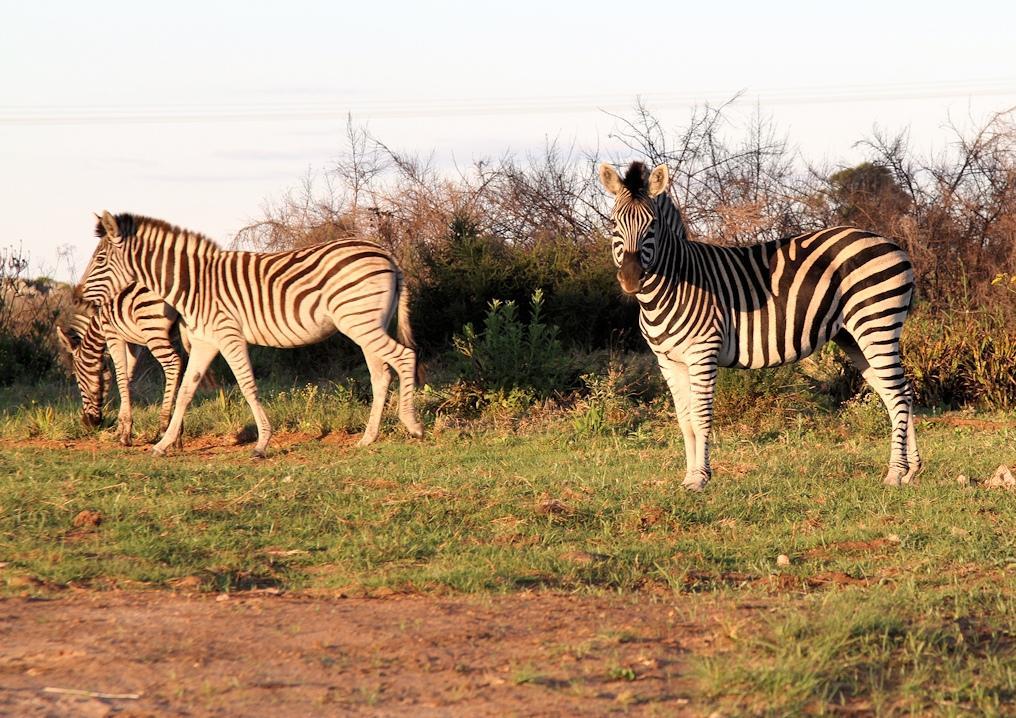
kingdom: Animalia
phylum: Chordata
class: Mammalia
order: Perissodactyla
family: Equidae
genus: Equus
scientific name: Equus quagga
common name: Plains zebra
